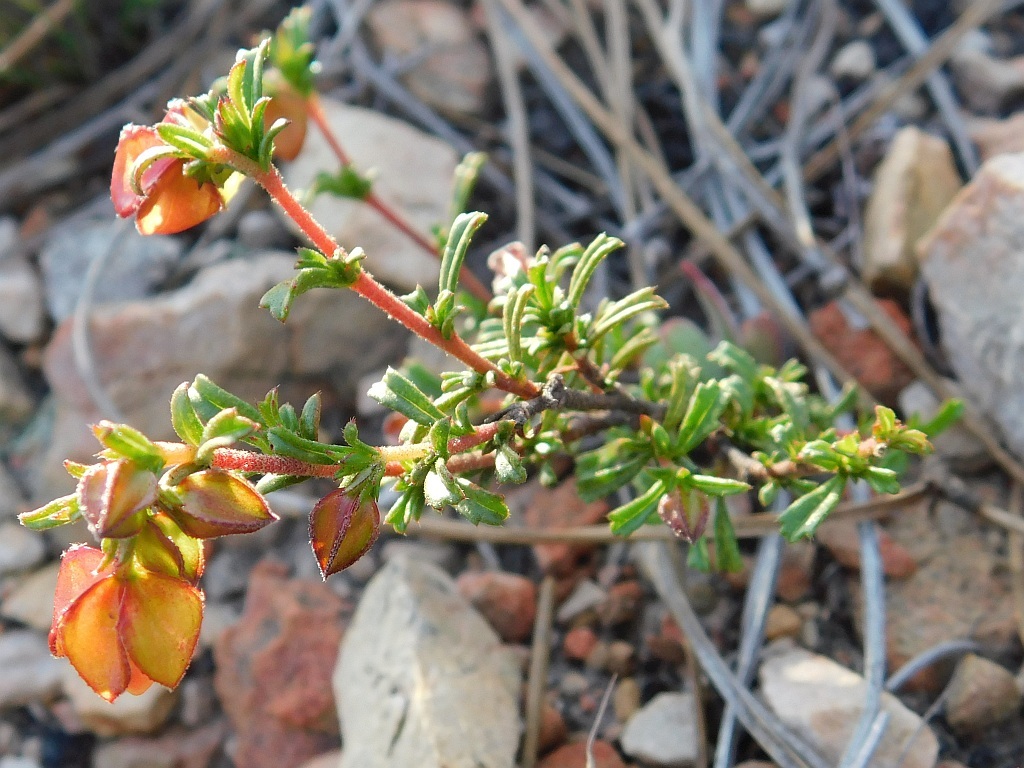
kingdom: Plantae
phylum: Tracheophyta
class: Magnoliopsida
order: Malvales
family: Malvaceae
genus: Hermannia
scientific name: Hermannia angularis
